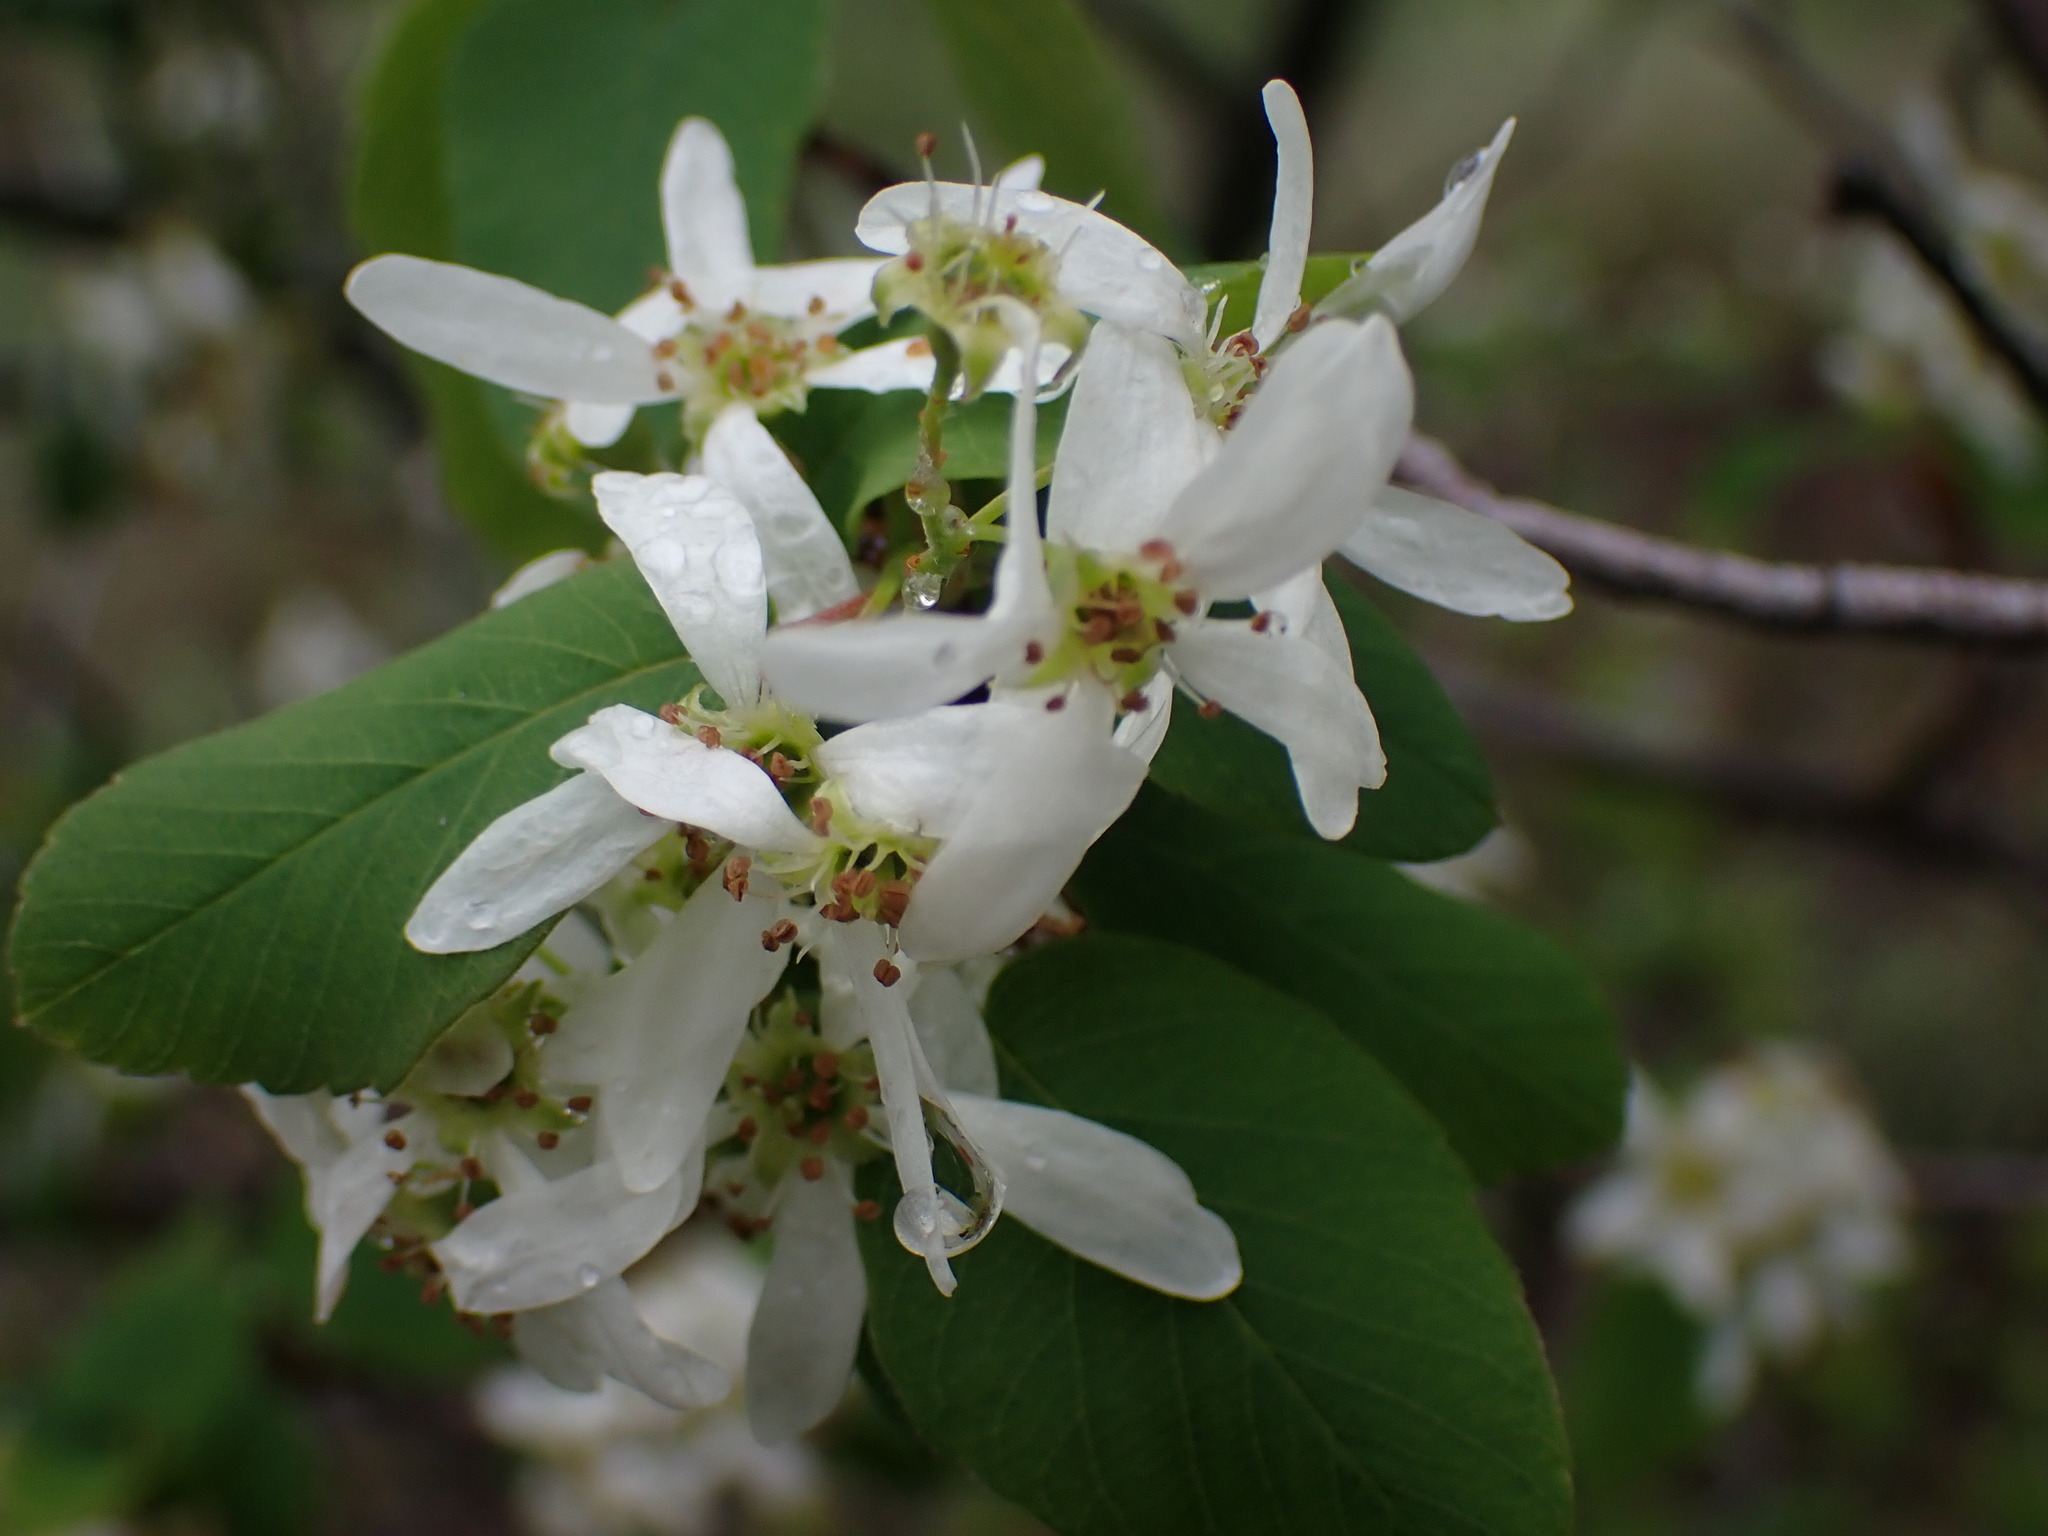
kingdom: Plantae
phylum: Tracheophyta
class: Magnoliopsida
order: Rosales
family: Rosaceae
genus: Amelanchier
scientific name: Amelanchier alnifolia
